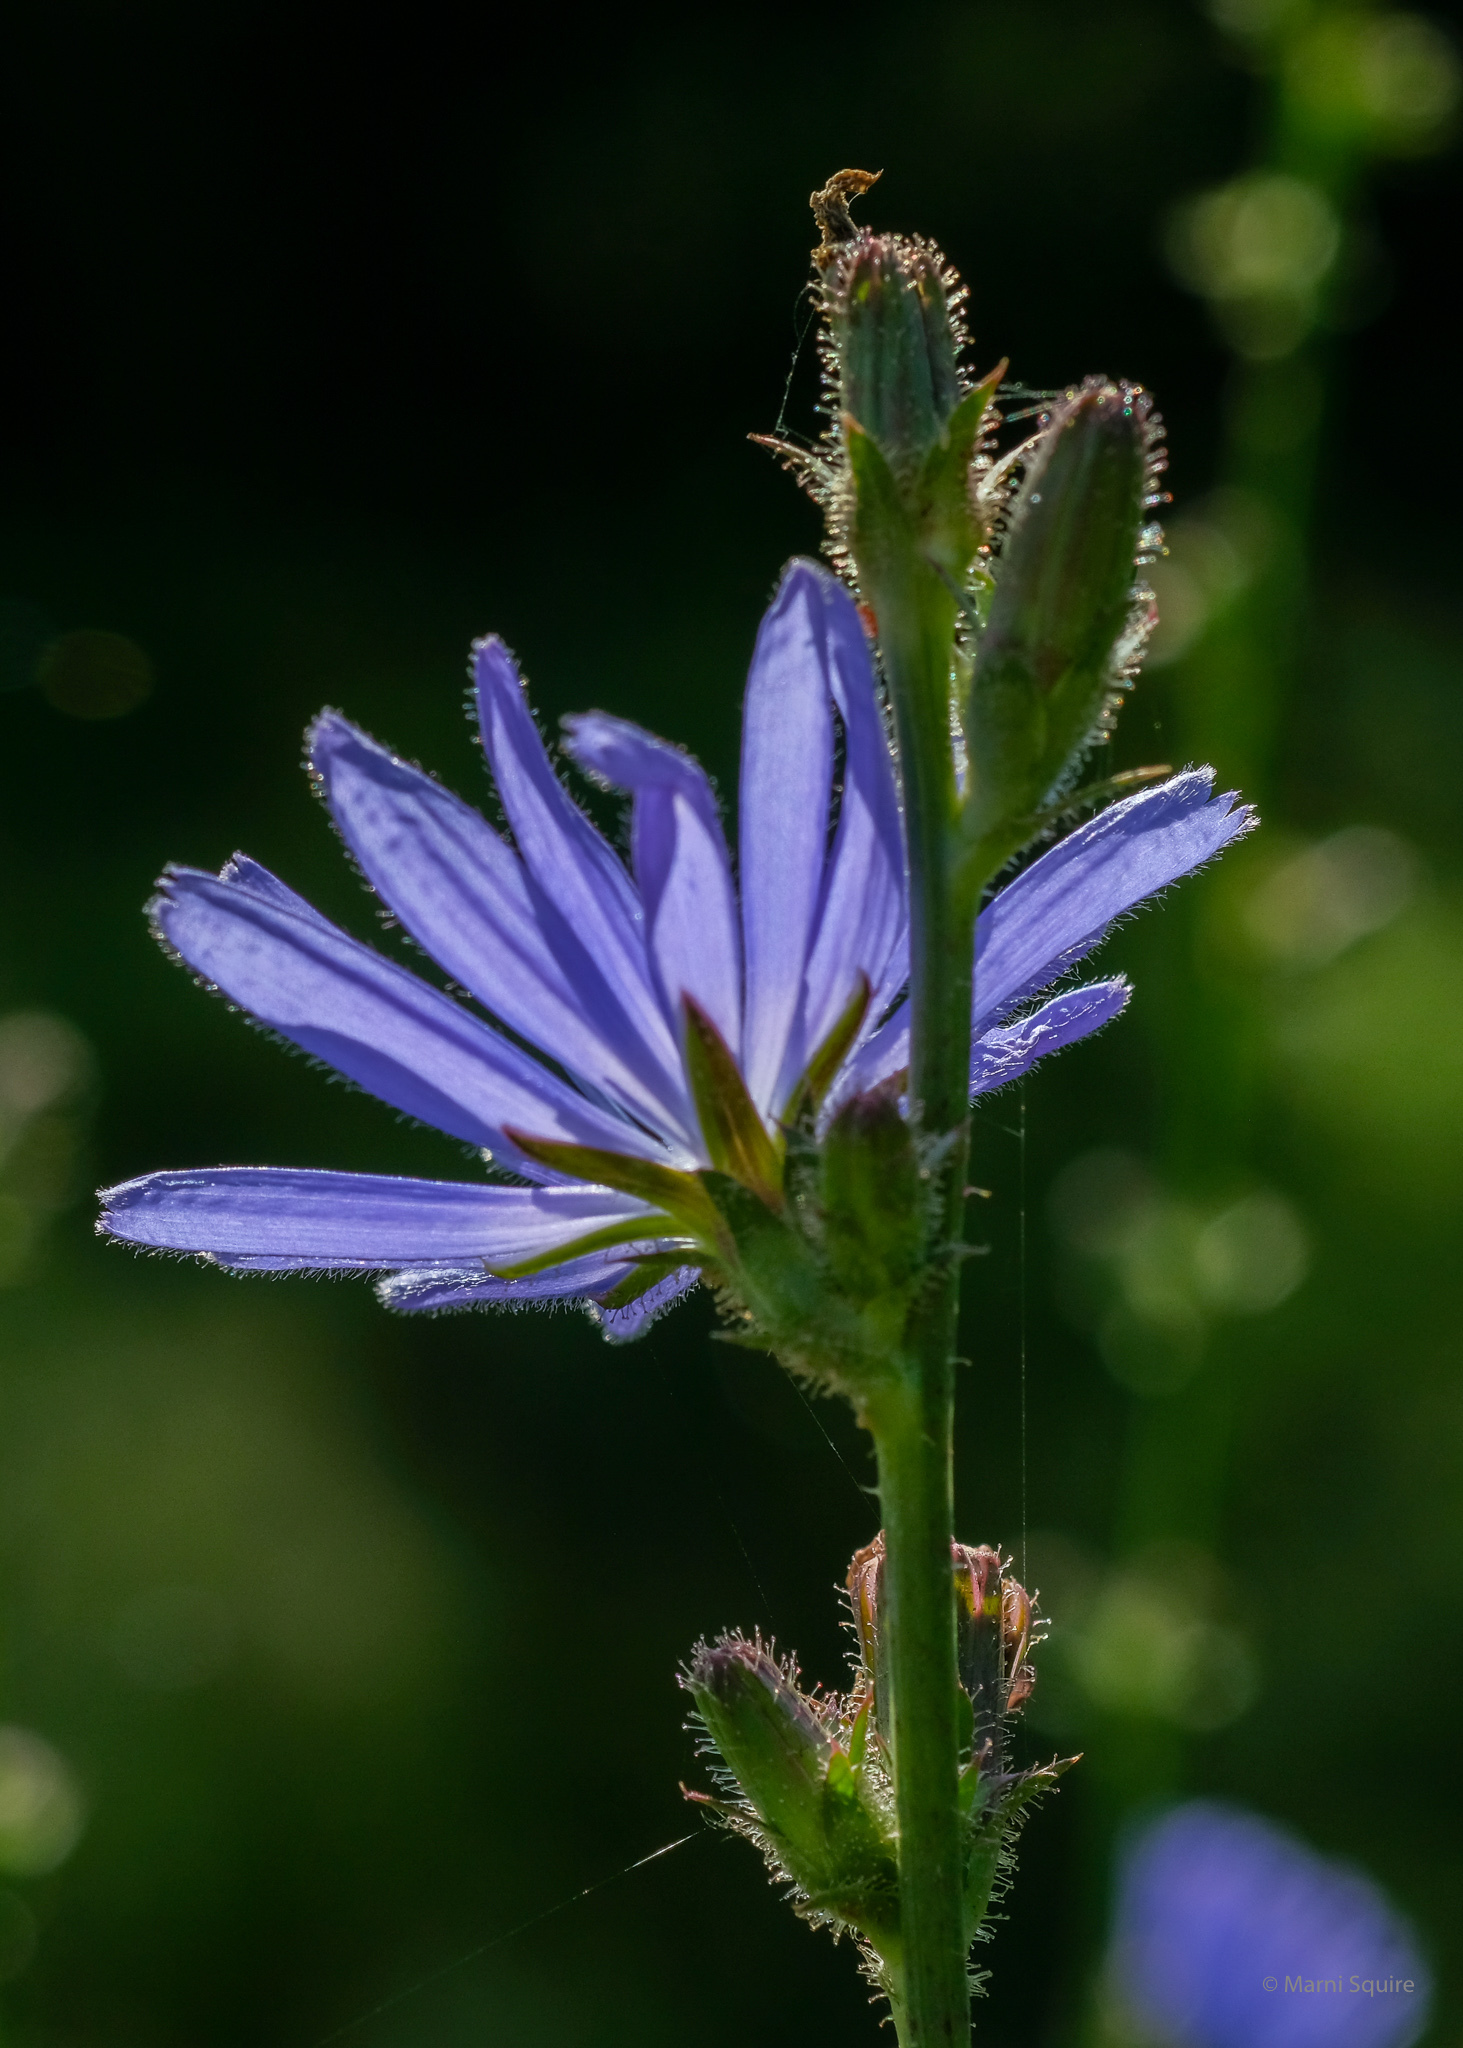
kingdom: Plantae
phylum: Tracheophyta
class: Magnoliopsida
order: Asterales
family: Asteraceae
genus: Cichorium
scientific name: Cichorium intybus
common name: Chicory
